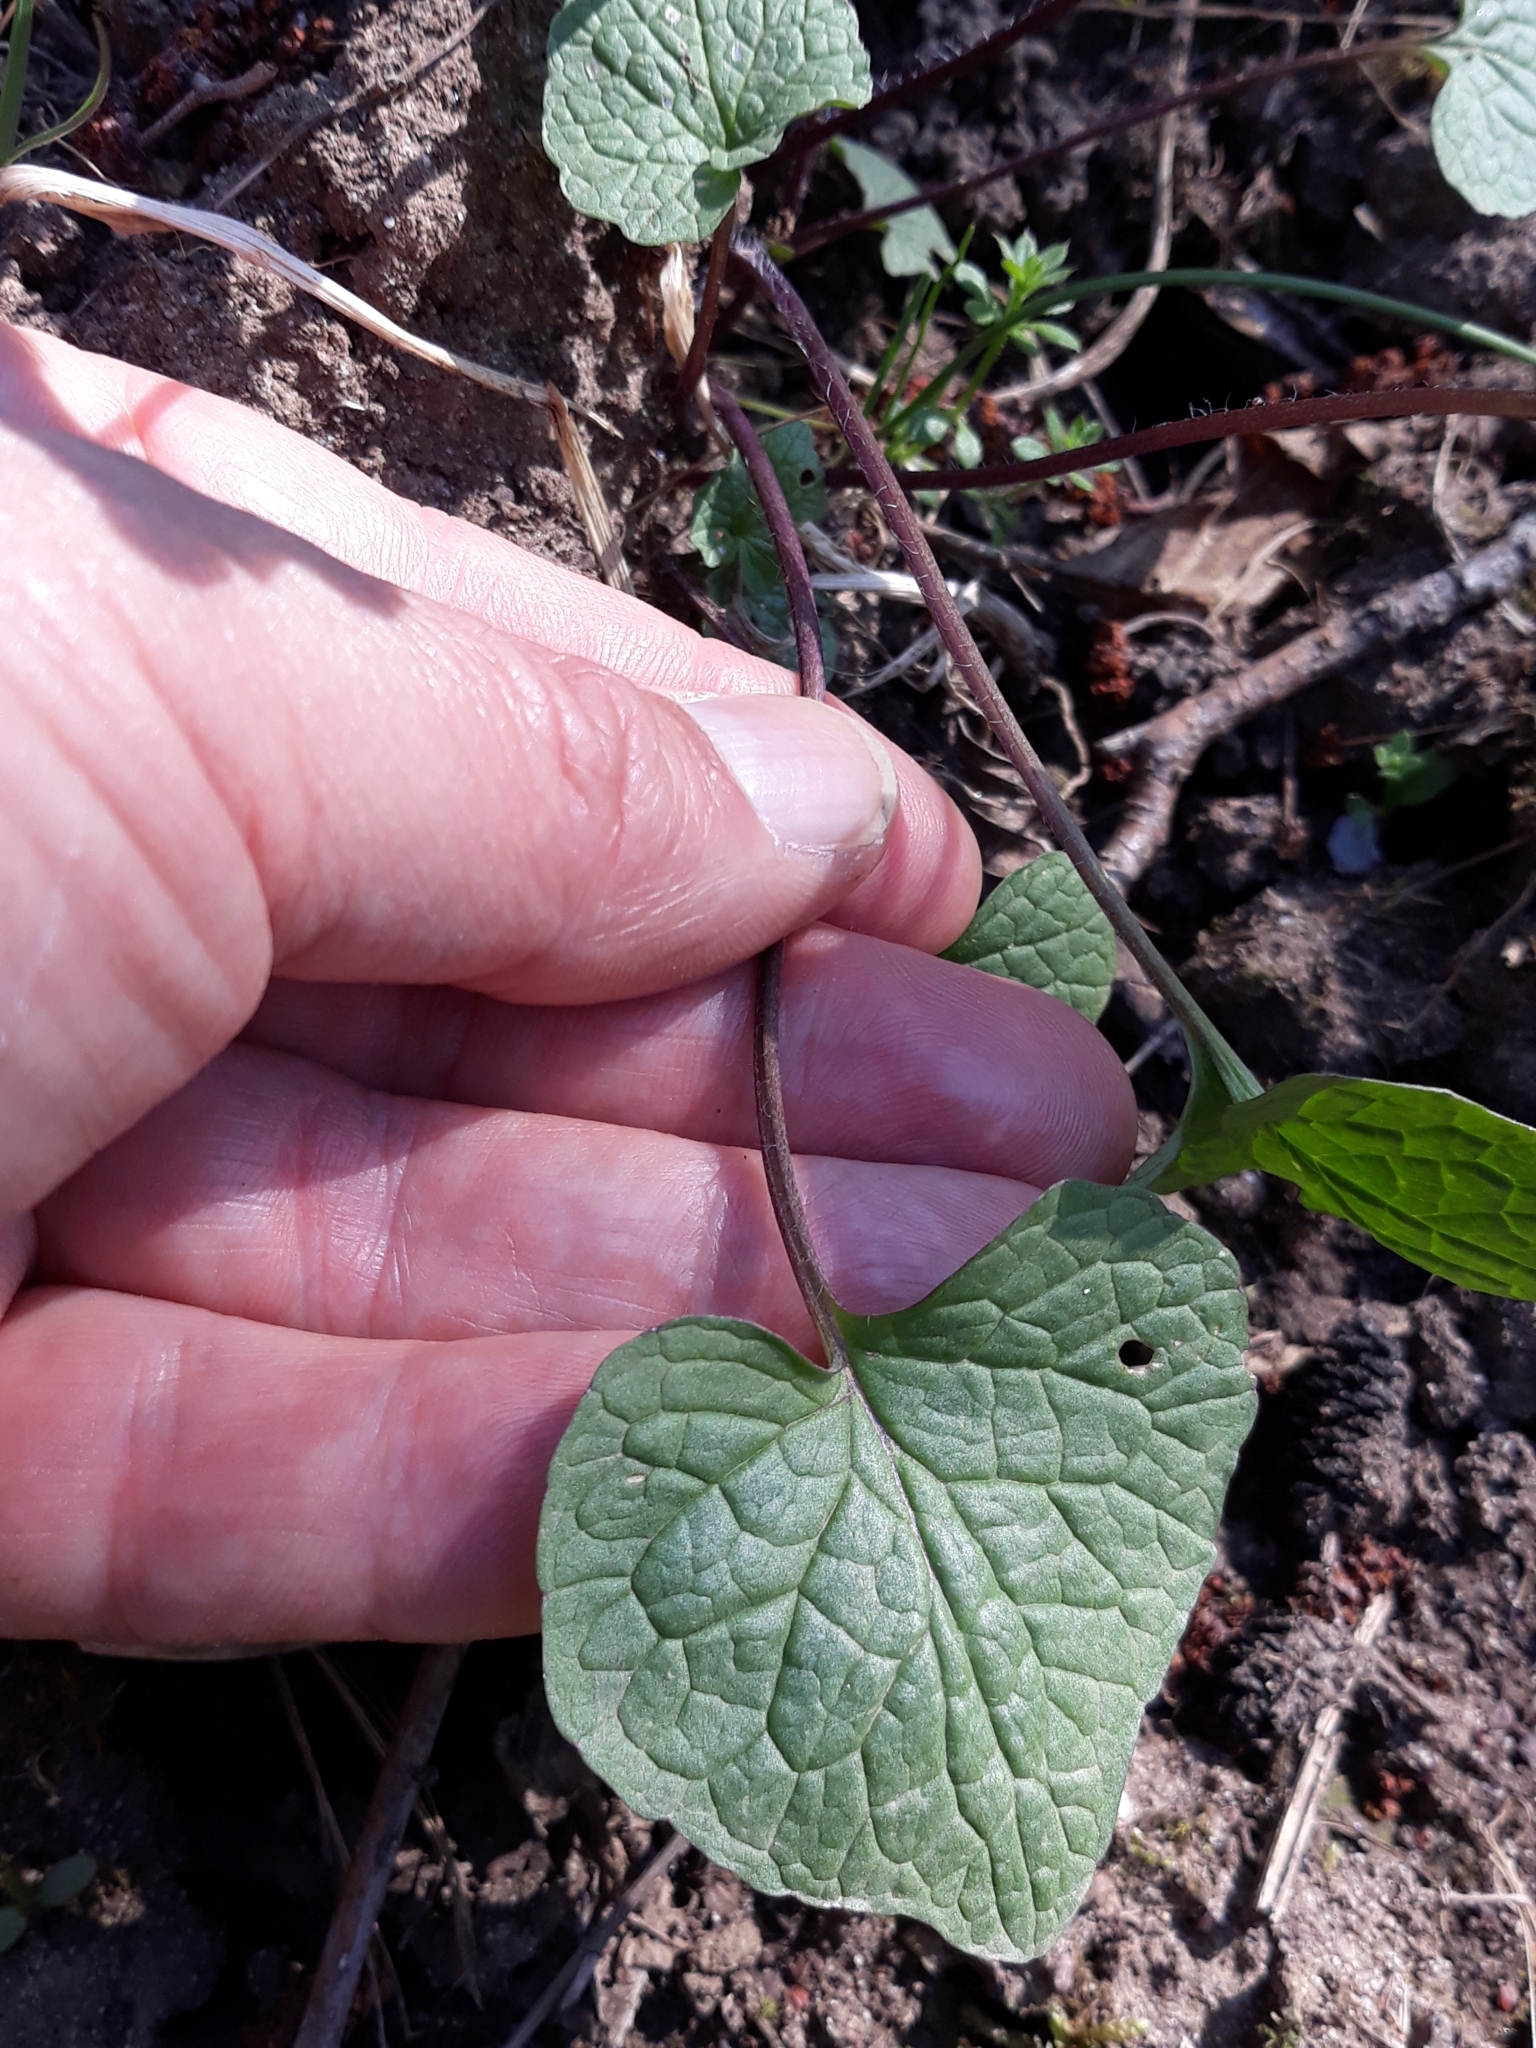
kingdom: Plantae
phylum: Tracheophyta
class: Magnoliopsida
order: Brassicales
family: Brassicaceae
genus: Alliaria
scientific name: Alliaria petiolata
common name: Garlic mustard
